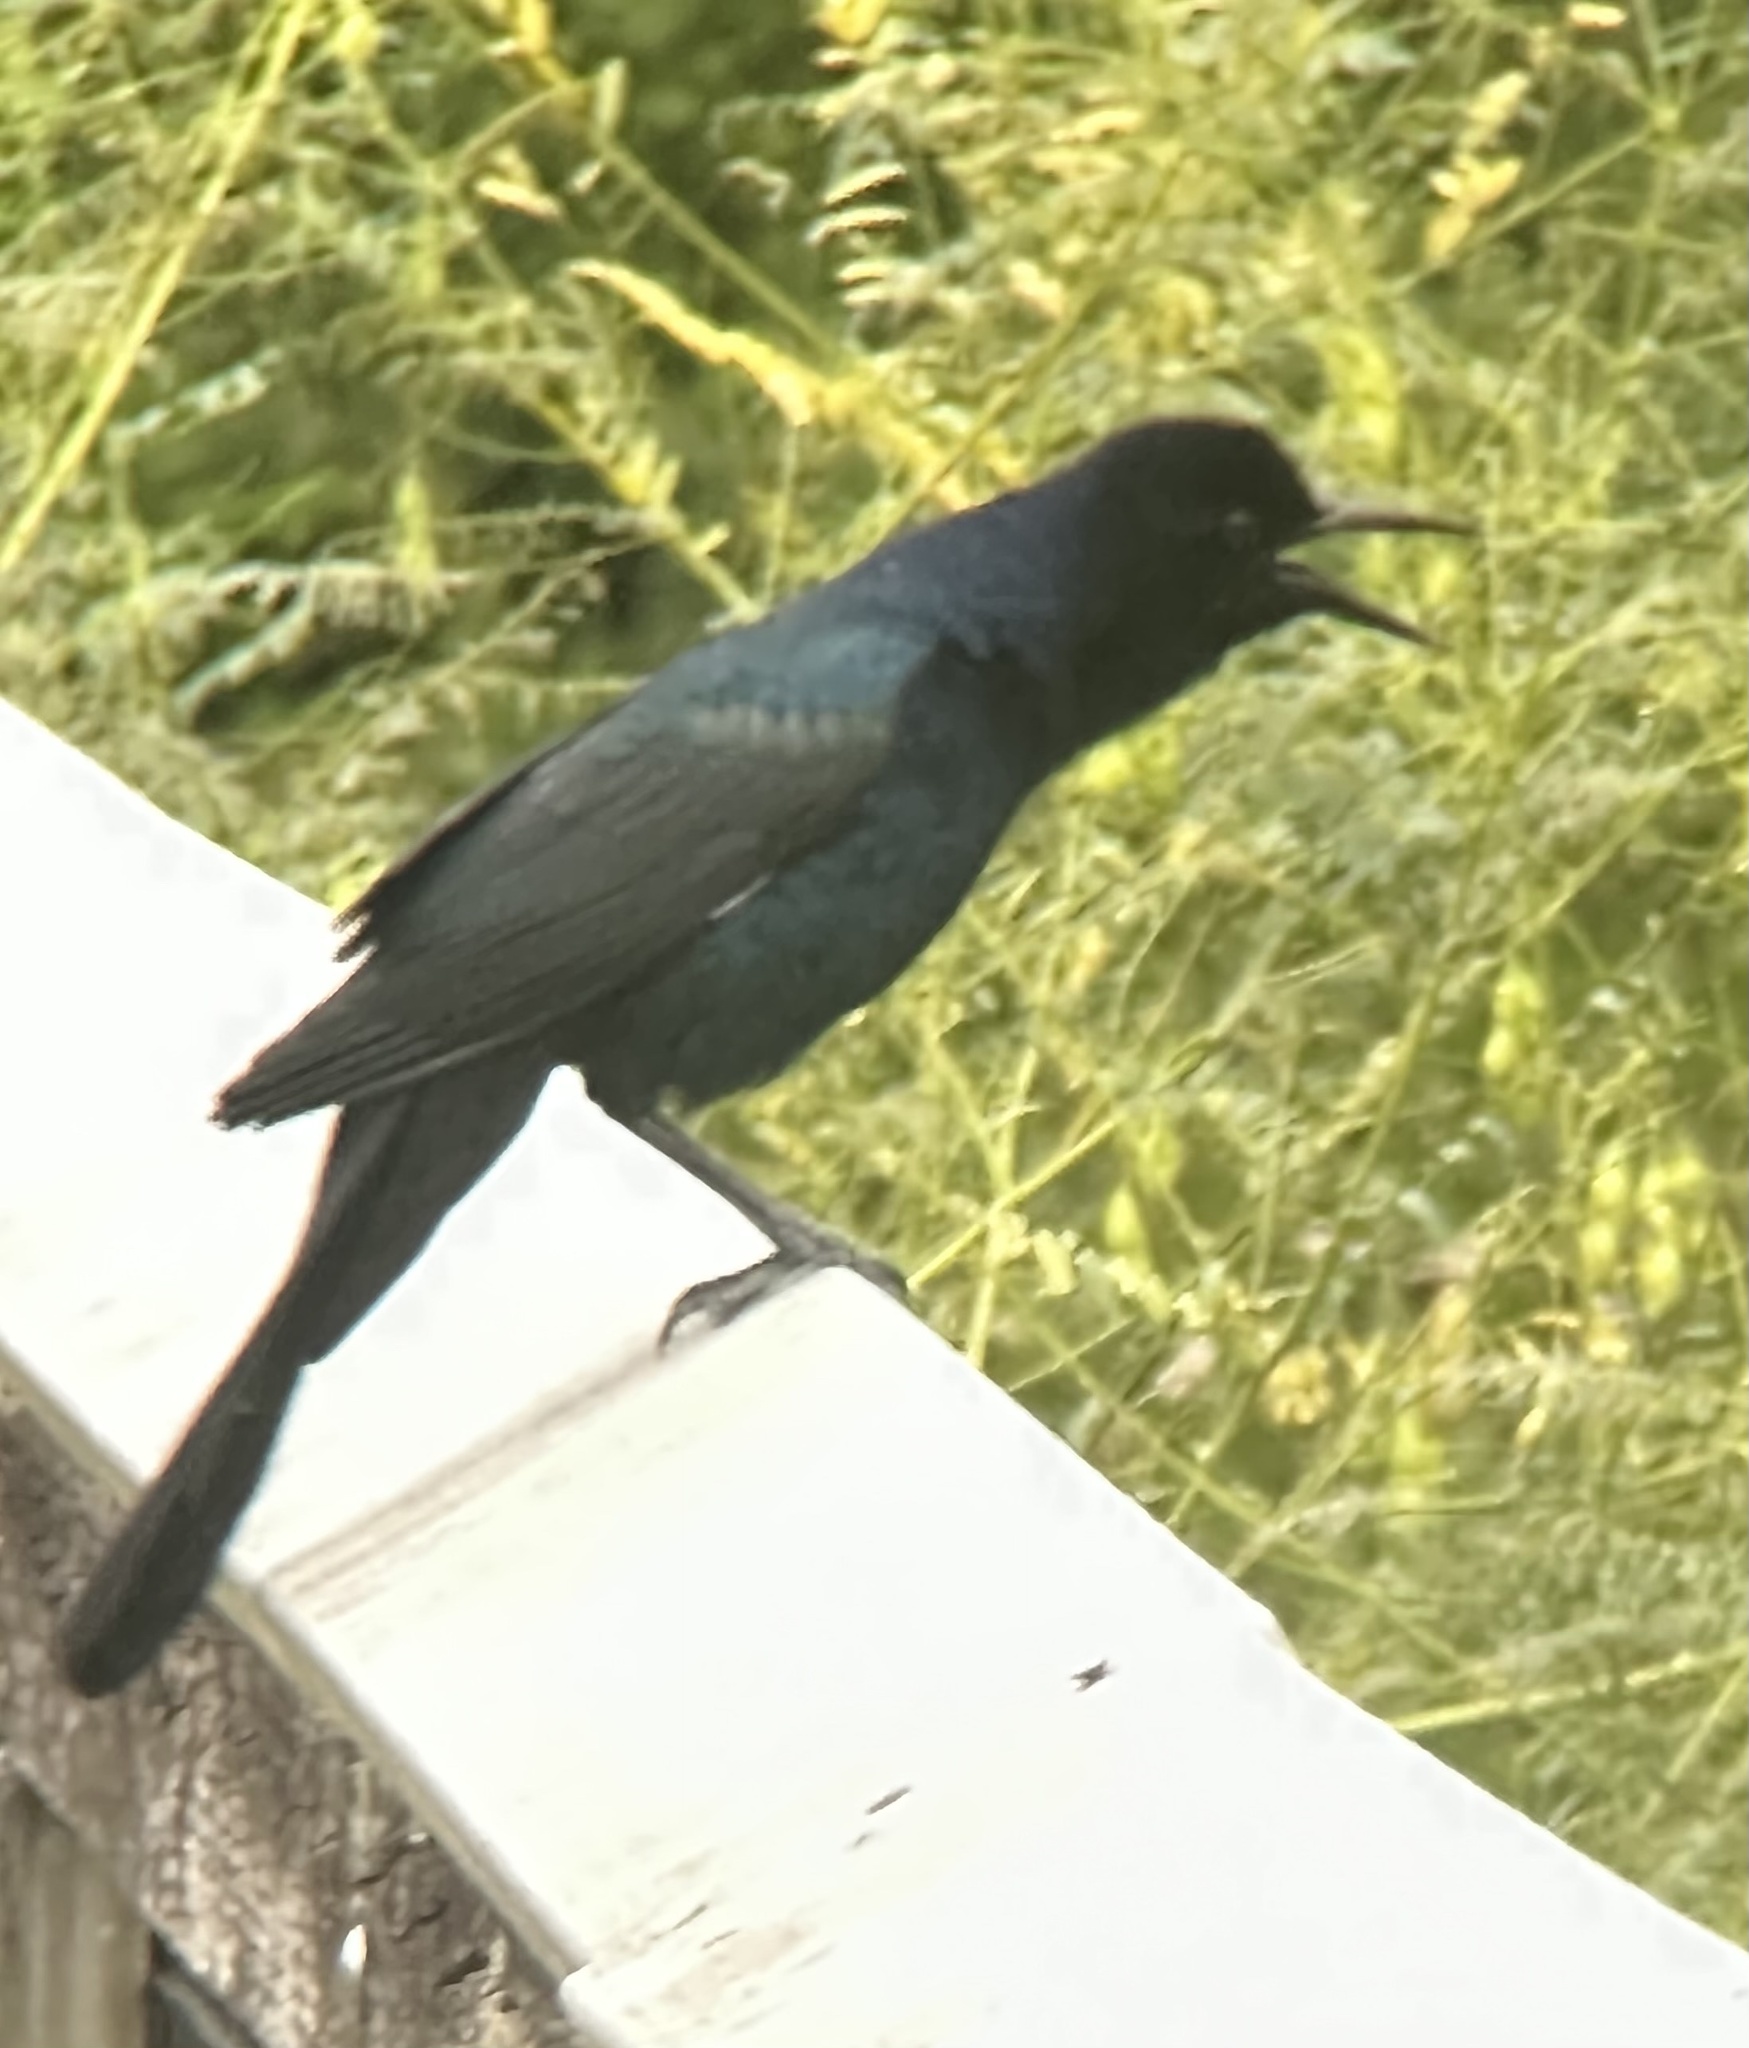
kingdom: Animalia
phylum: Chordata
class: Aves
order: Passeriformes
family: Icteridae
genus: Quiscalus
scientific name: Quiscalus major
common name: Boat-tailed grackle
